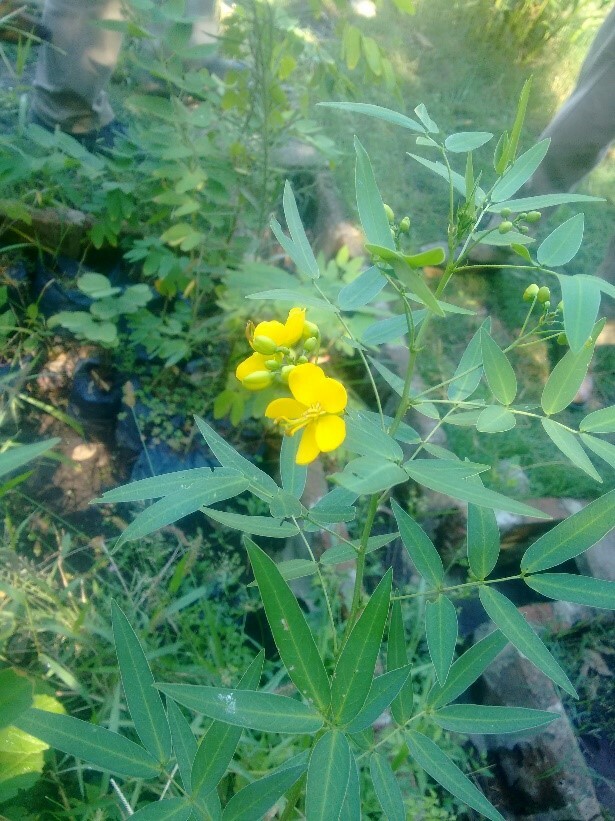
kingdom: Plantae
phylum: Tracheophyta
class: Magnoliopsida
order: Fabales
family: Fabaceae
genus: Senna
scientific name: Senna corymbosa
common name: Argentine senna
